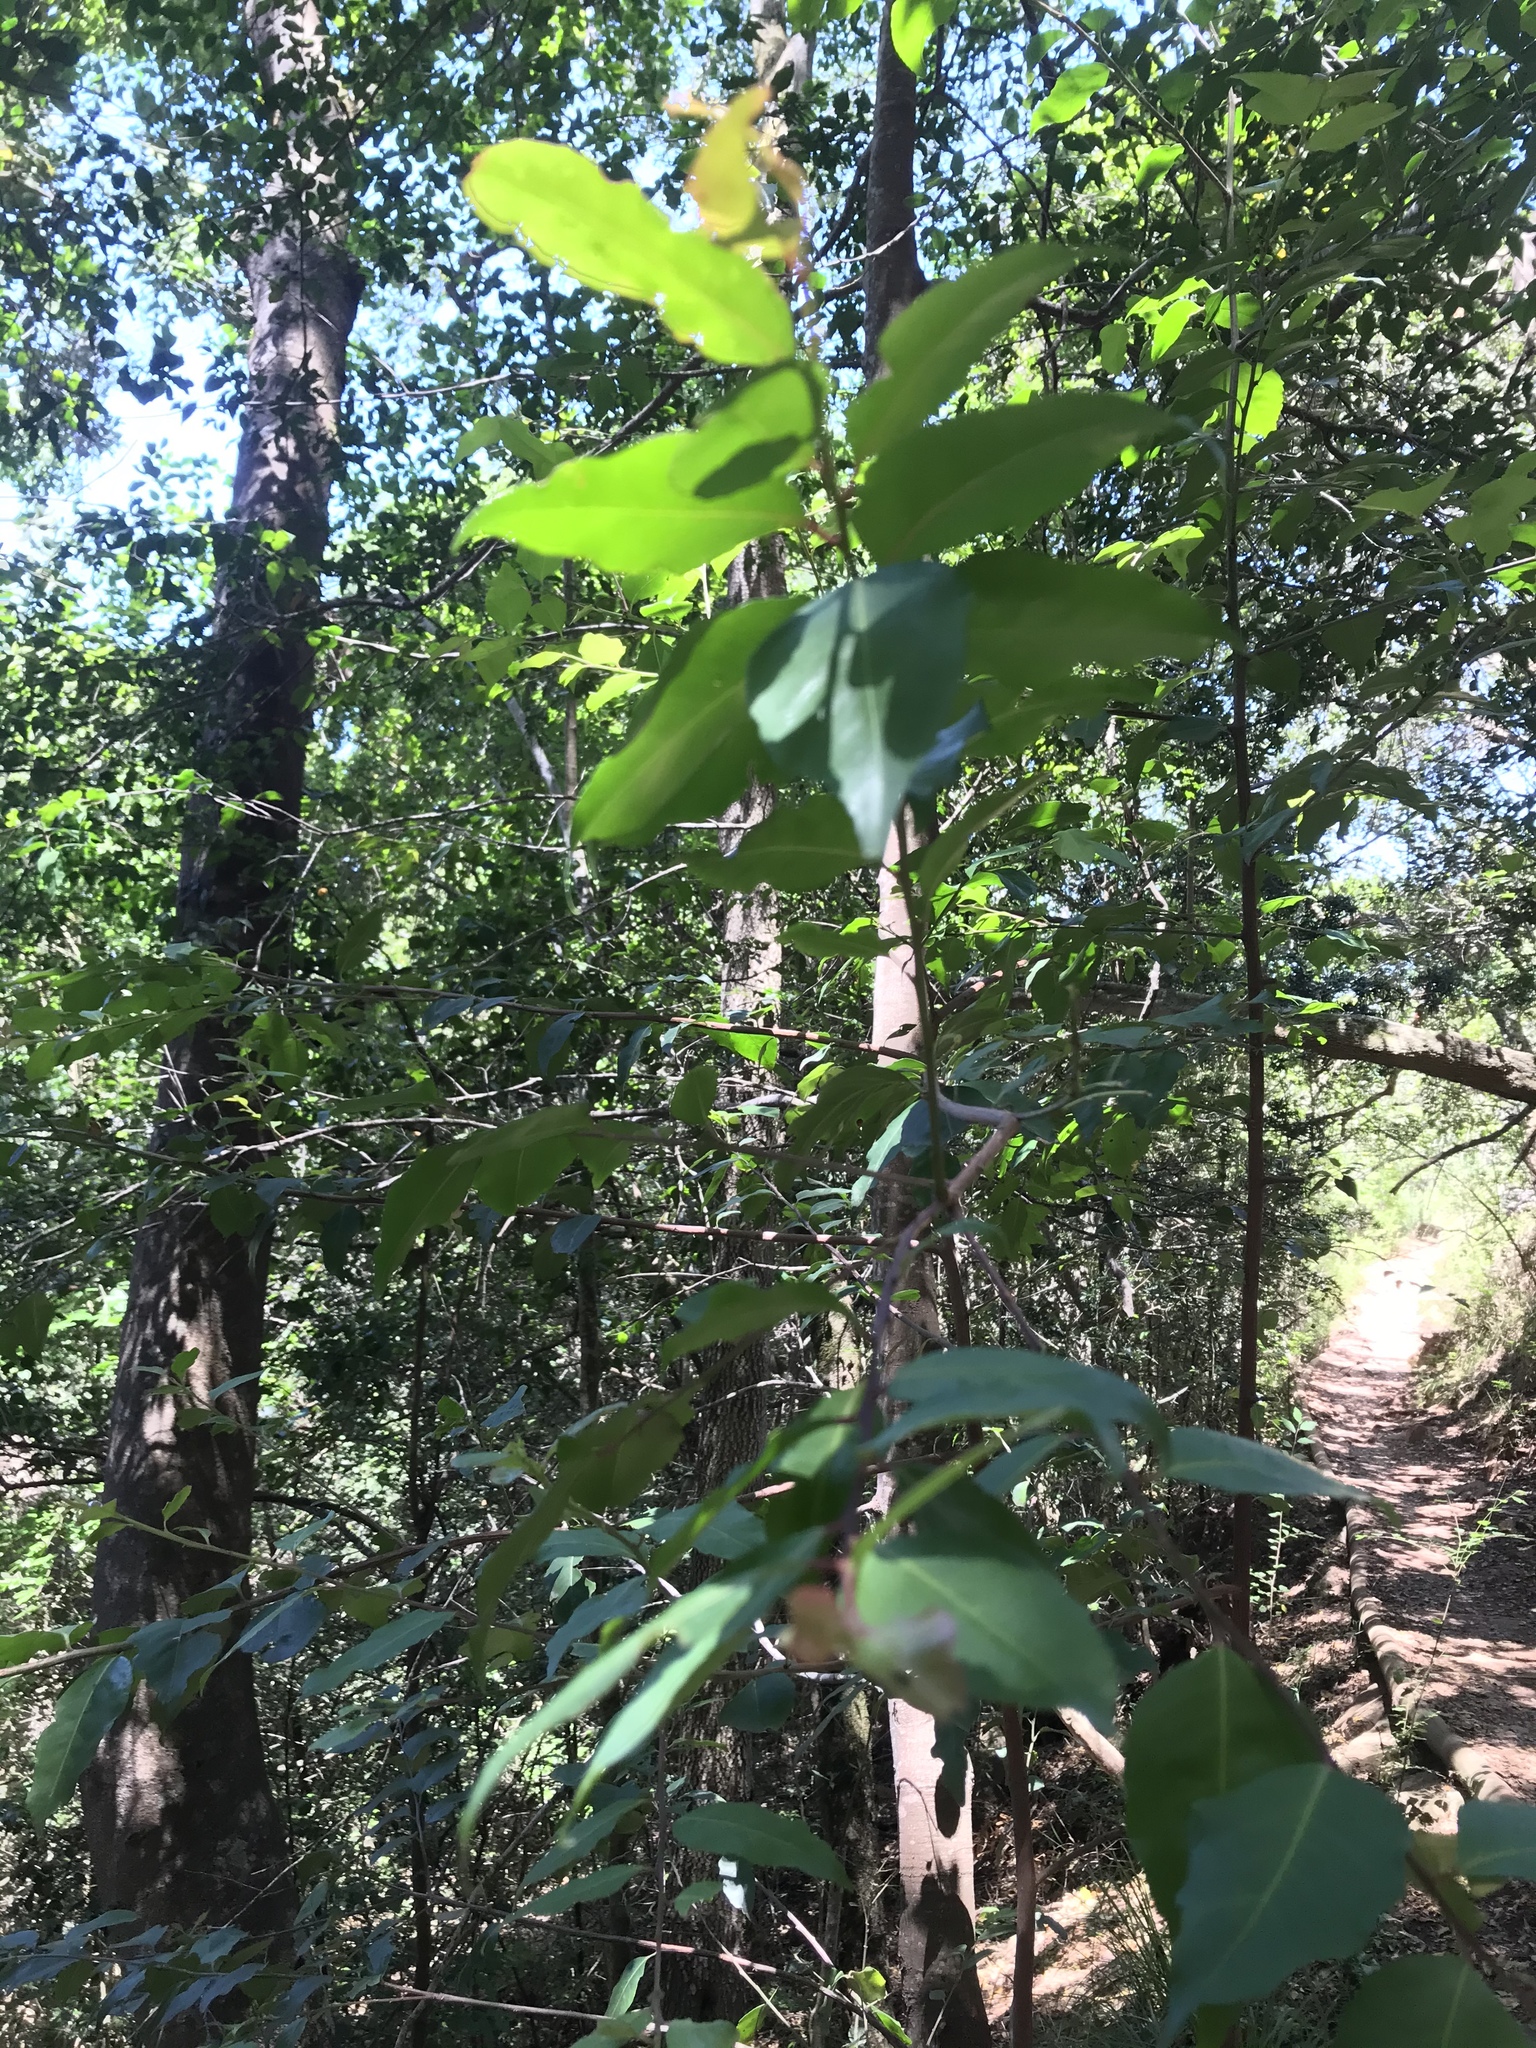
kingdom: Plantae
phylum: Tracheophyta
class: Magnoliopsida
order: Celastrales
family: Celastraceae
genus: Gymnosporia
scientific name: Gymnosporia acuminata
